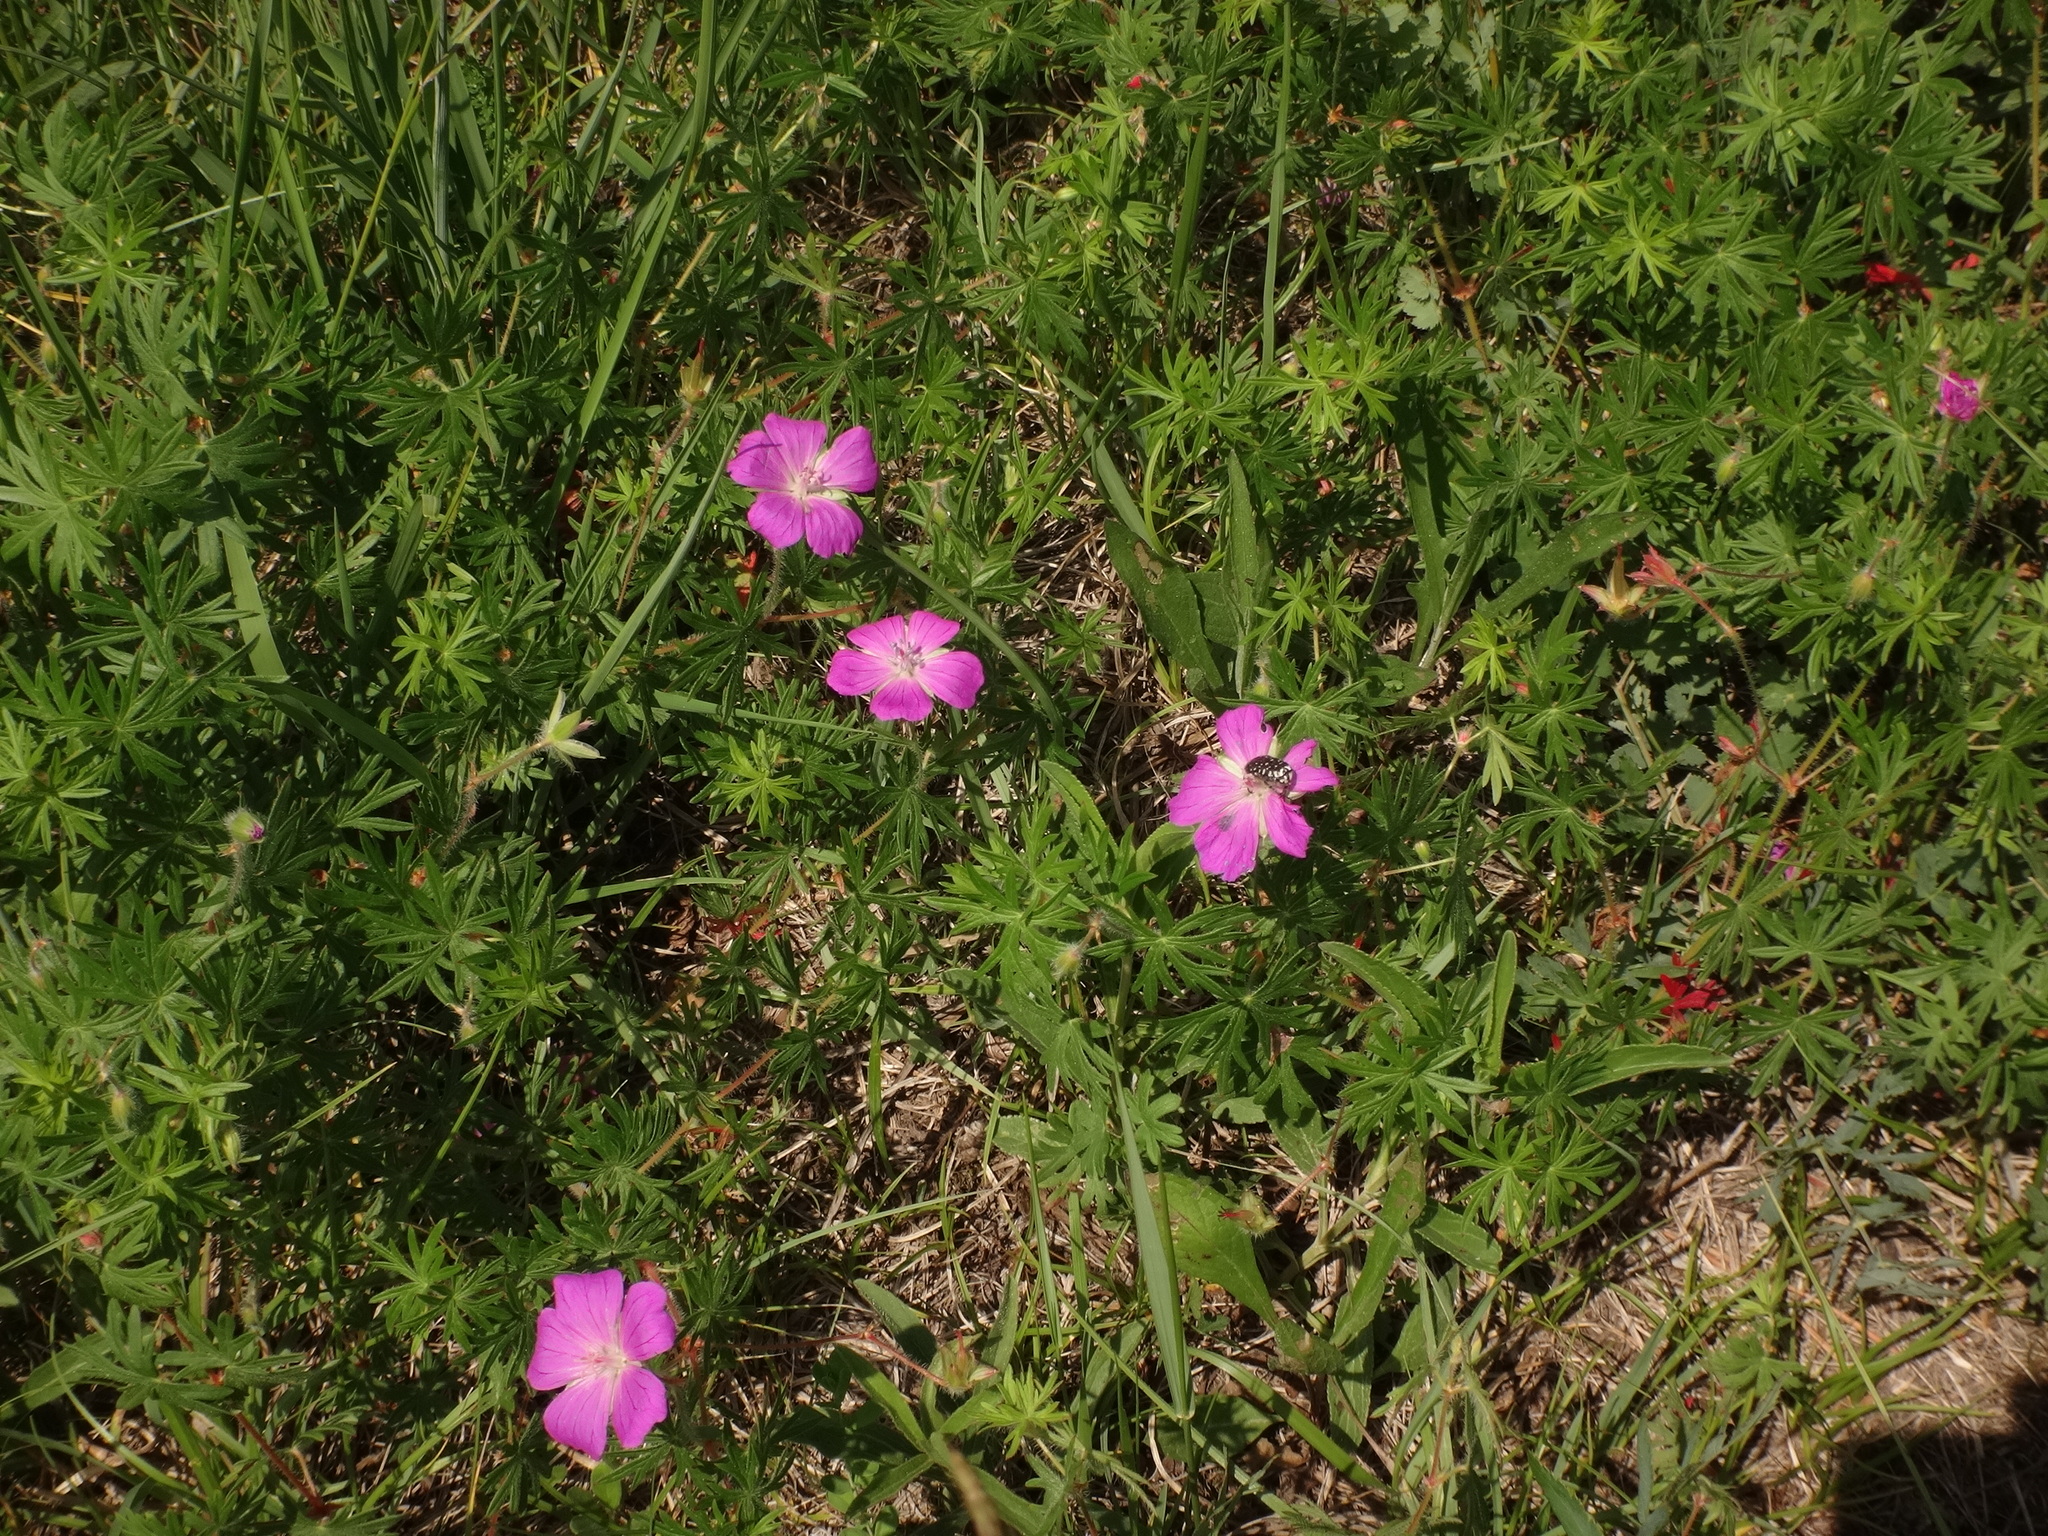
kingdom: Plantae
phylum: Tracheophyta
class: Magnoliopsida
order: Geraniales
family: Geraniaceae
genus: Geranium
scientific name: Geranium sanguineum
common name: Bloody crane's-bill
